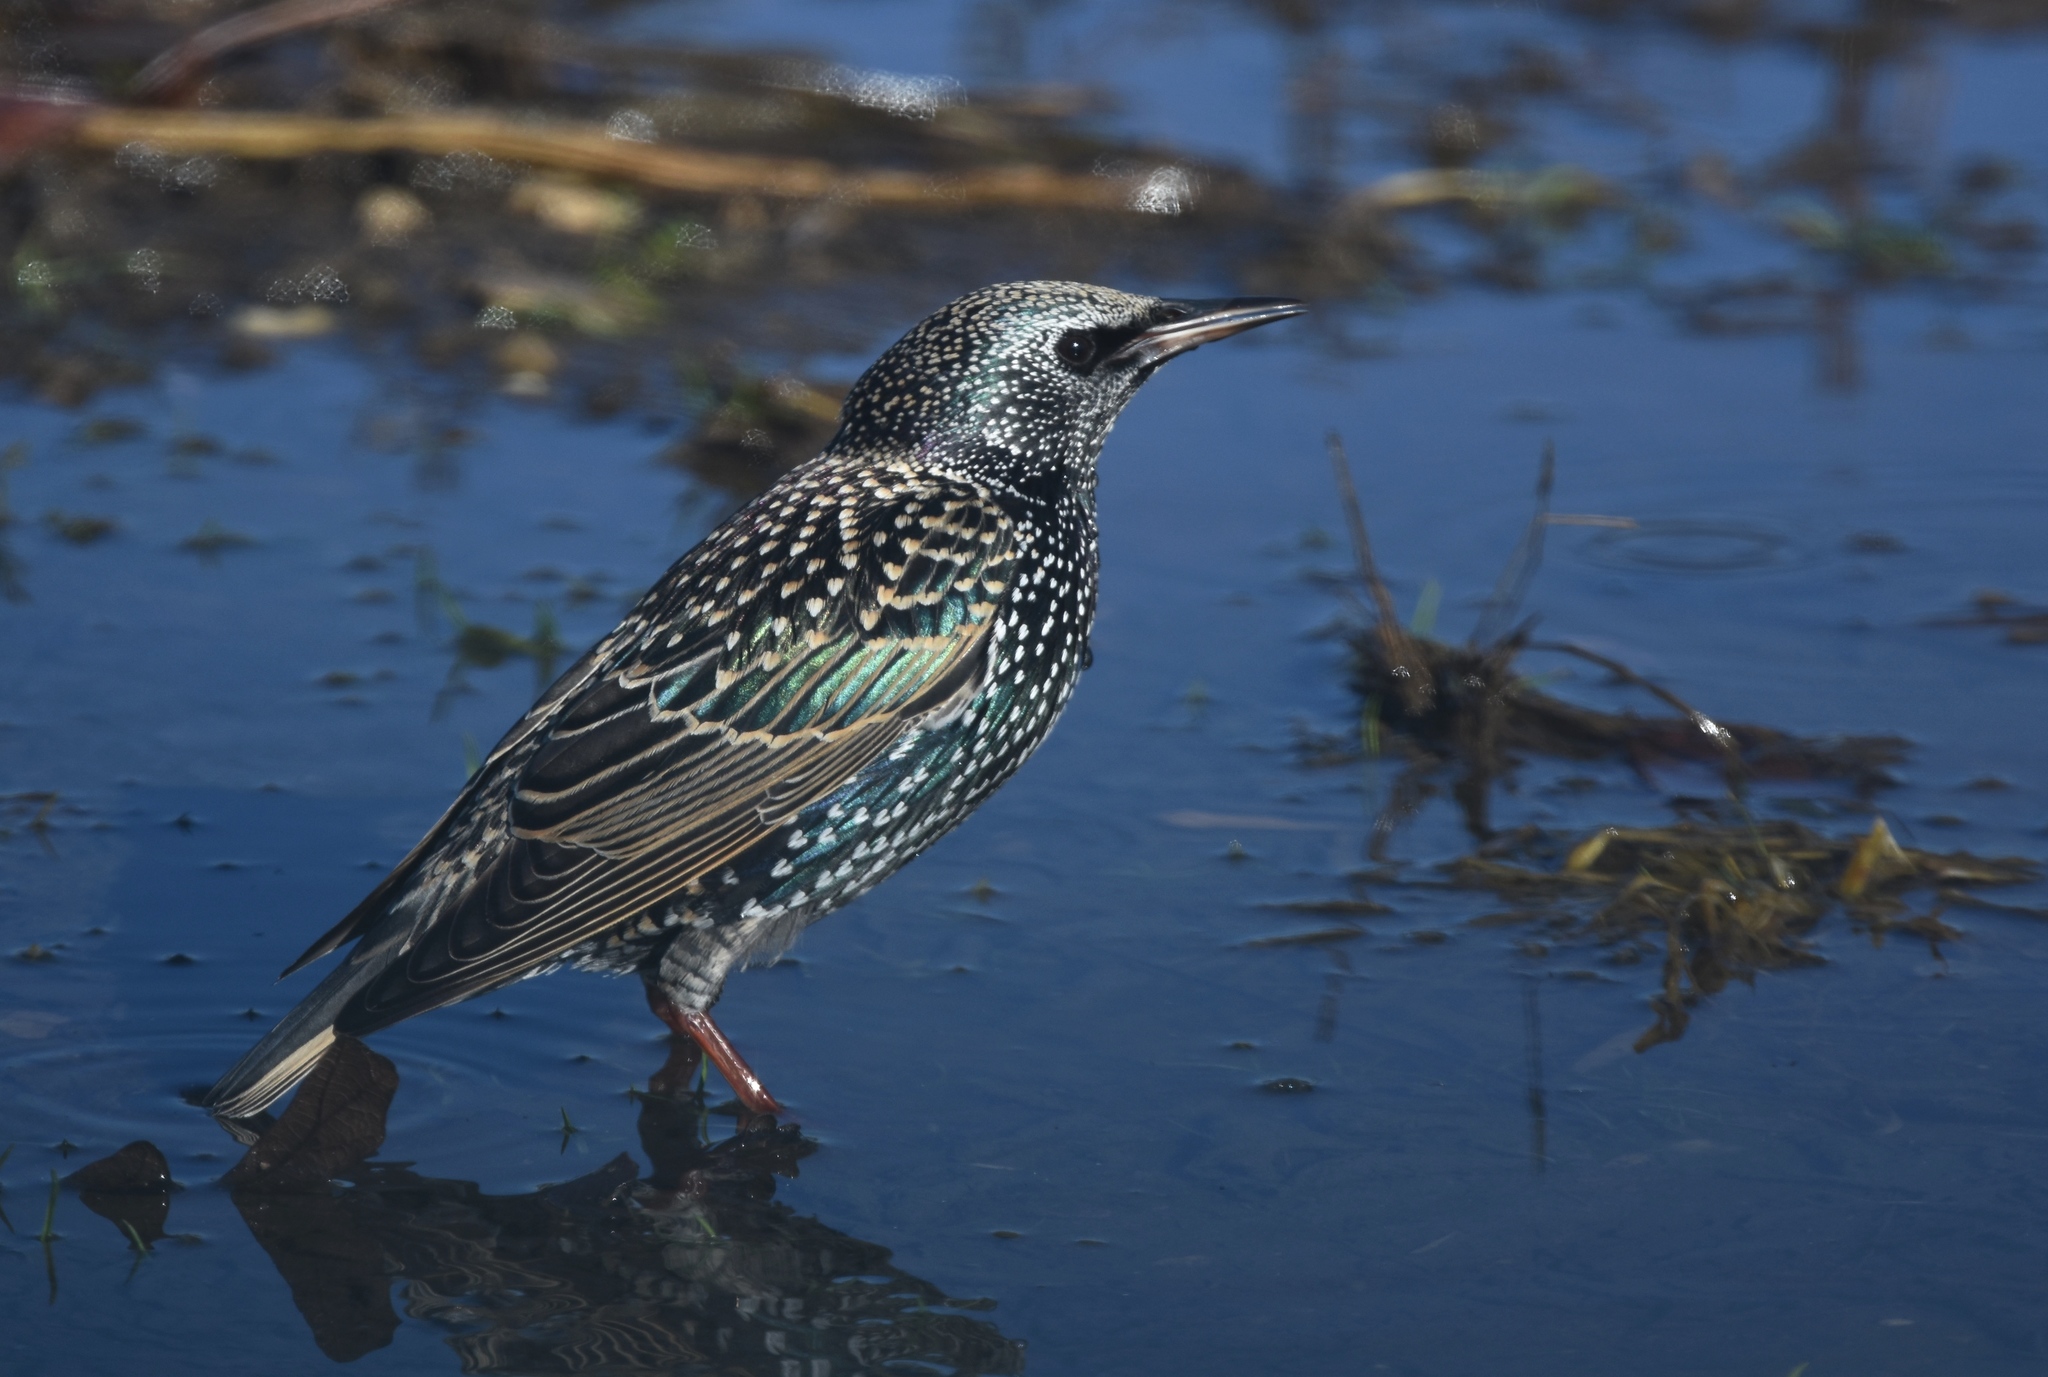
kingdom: Animalia
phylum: Chordata
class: Aves
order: Passeriformes
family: Sturnidae
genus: Sturnus
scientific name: Sturnus vulgaris
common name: Common starling
